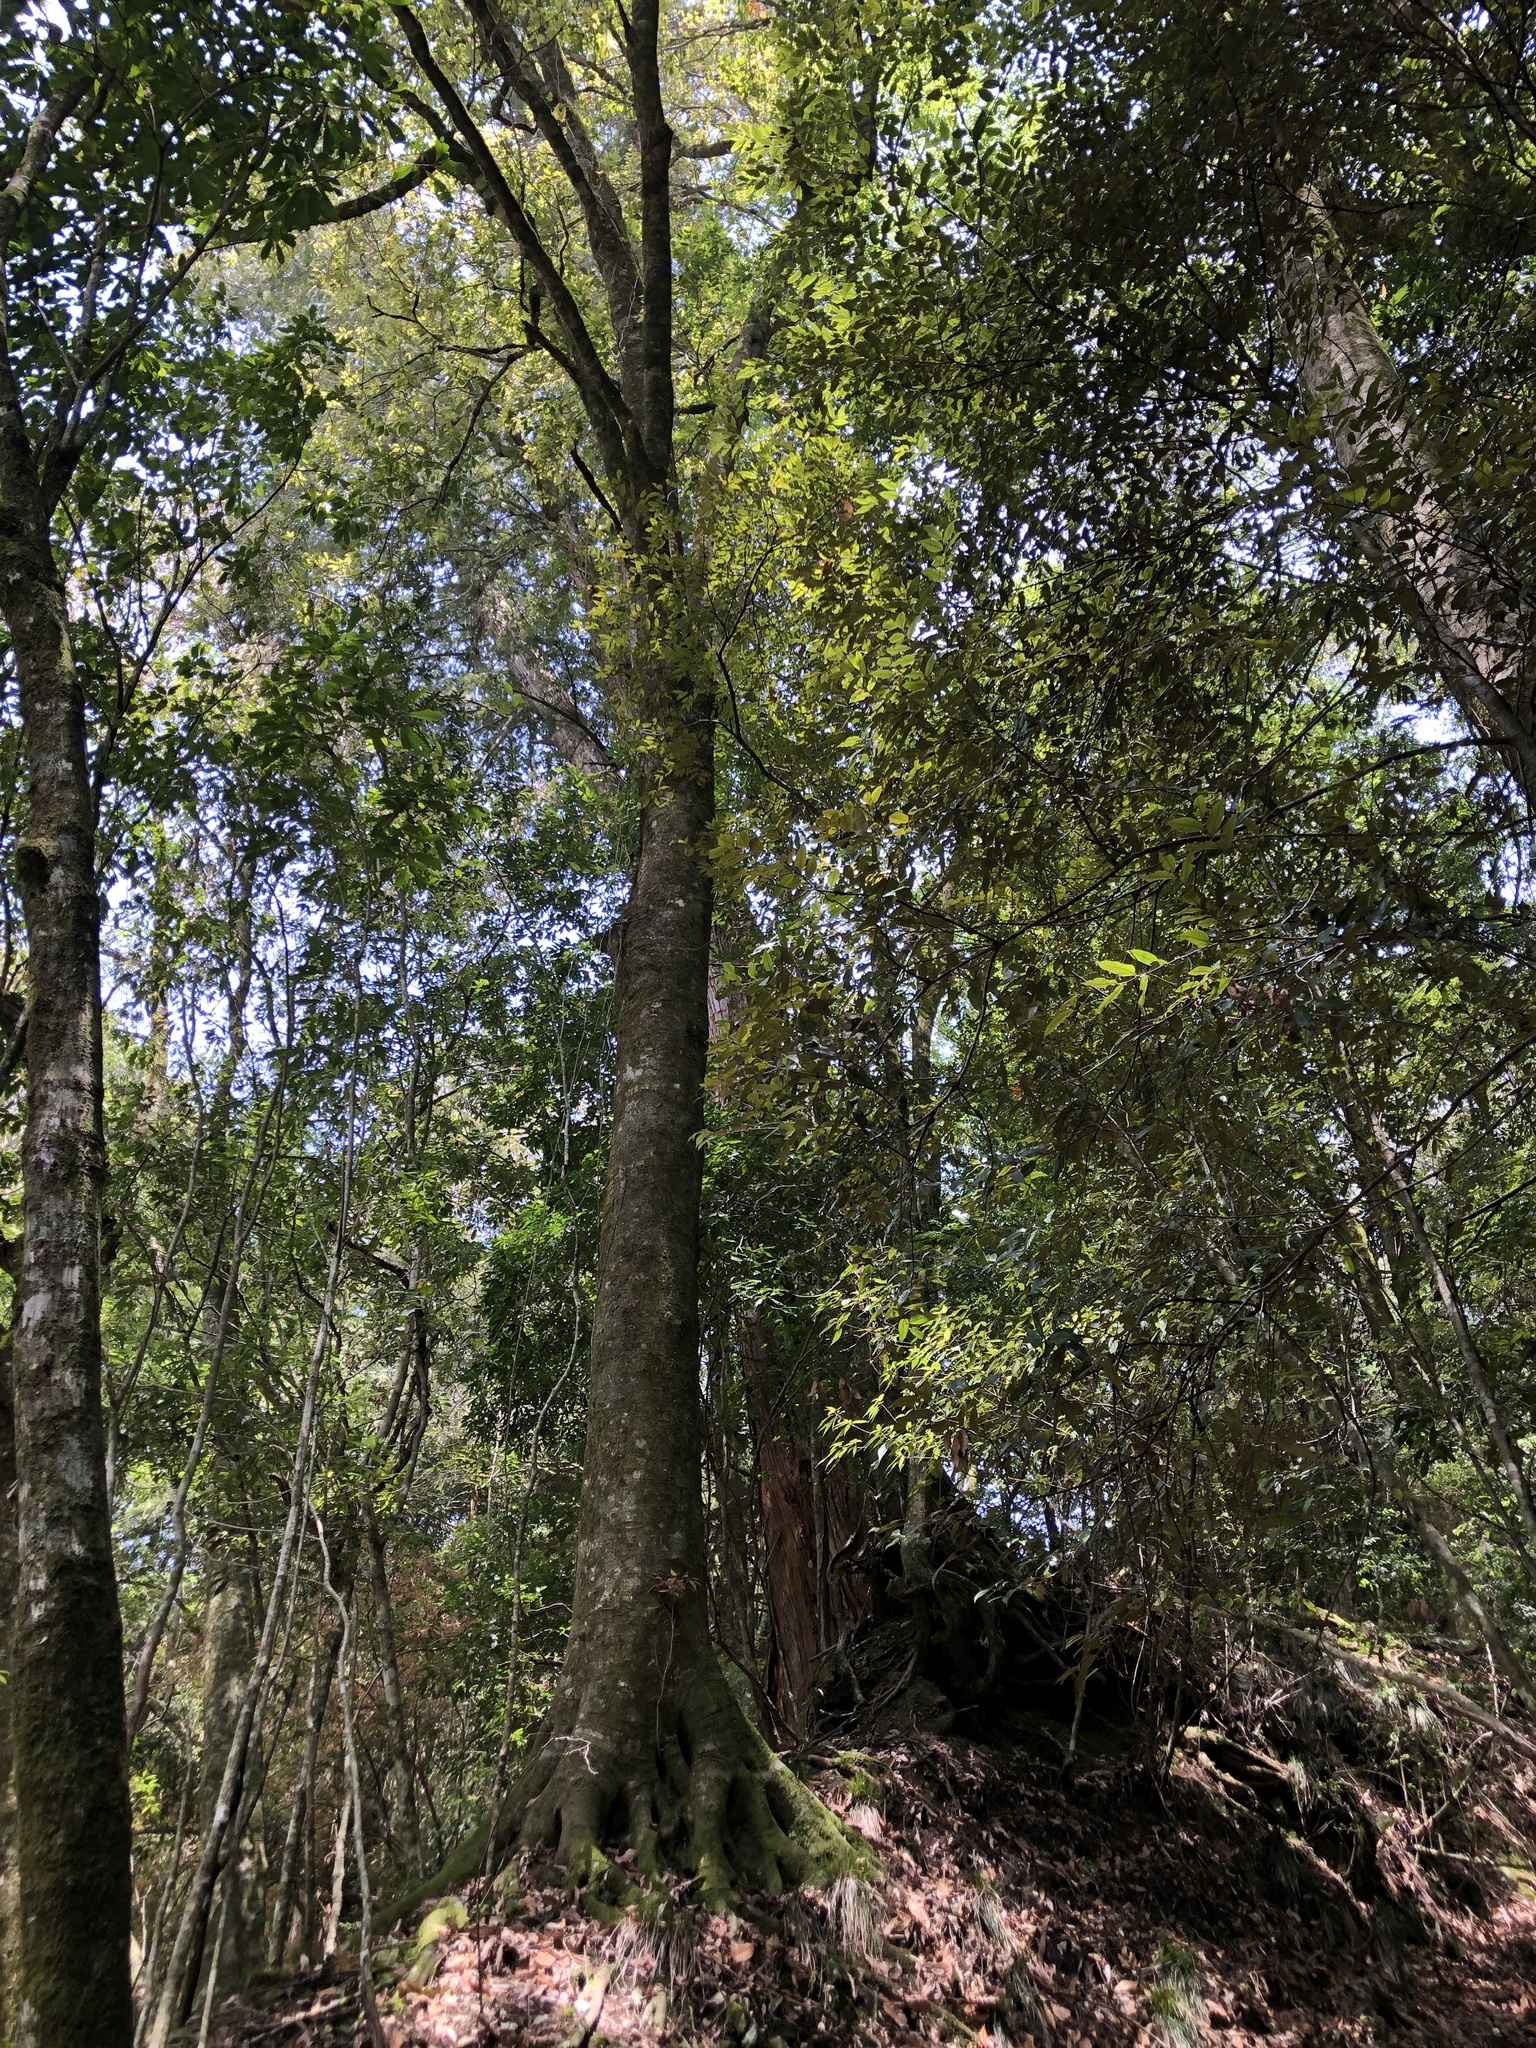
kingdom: Plantae
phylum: Tracheophyta
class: Magnoliopsida
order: Fagales
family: Fagaceae
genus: Lithocarpus
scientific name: Lithocarpus kawakamii
